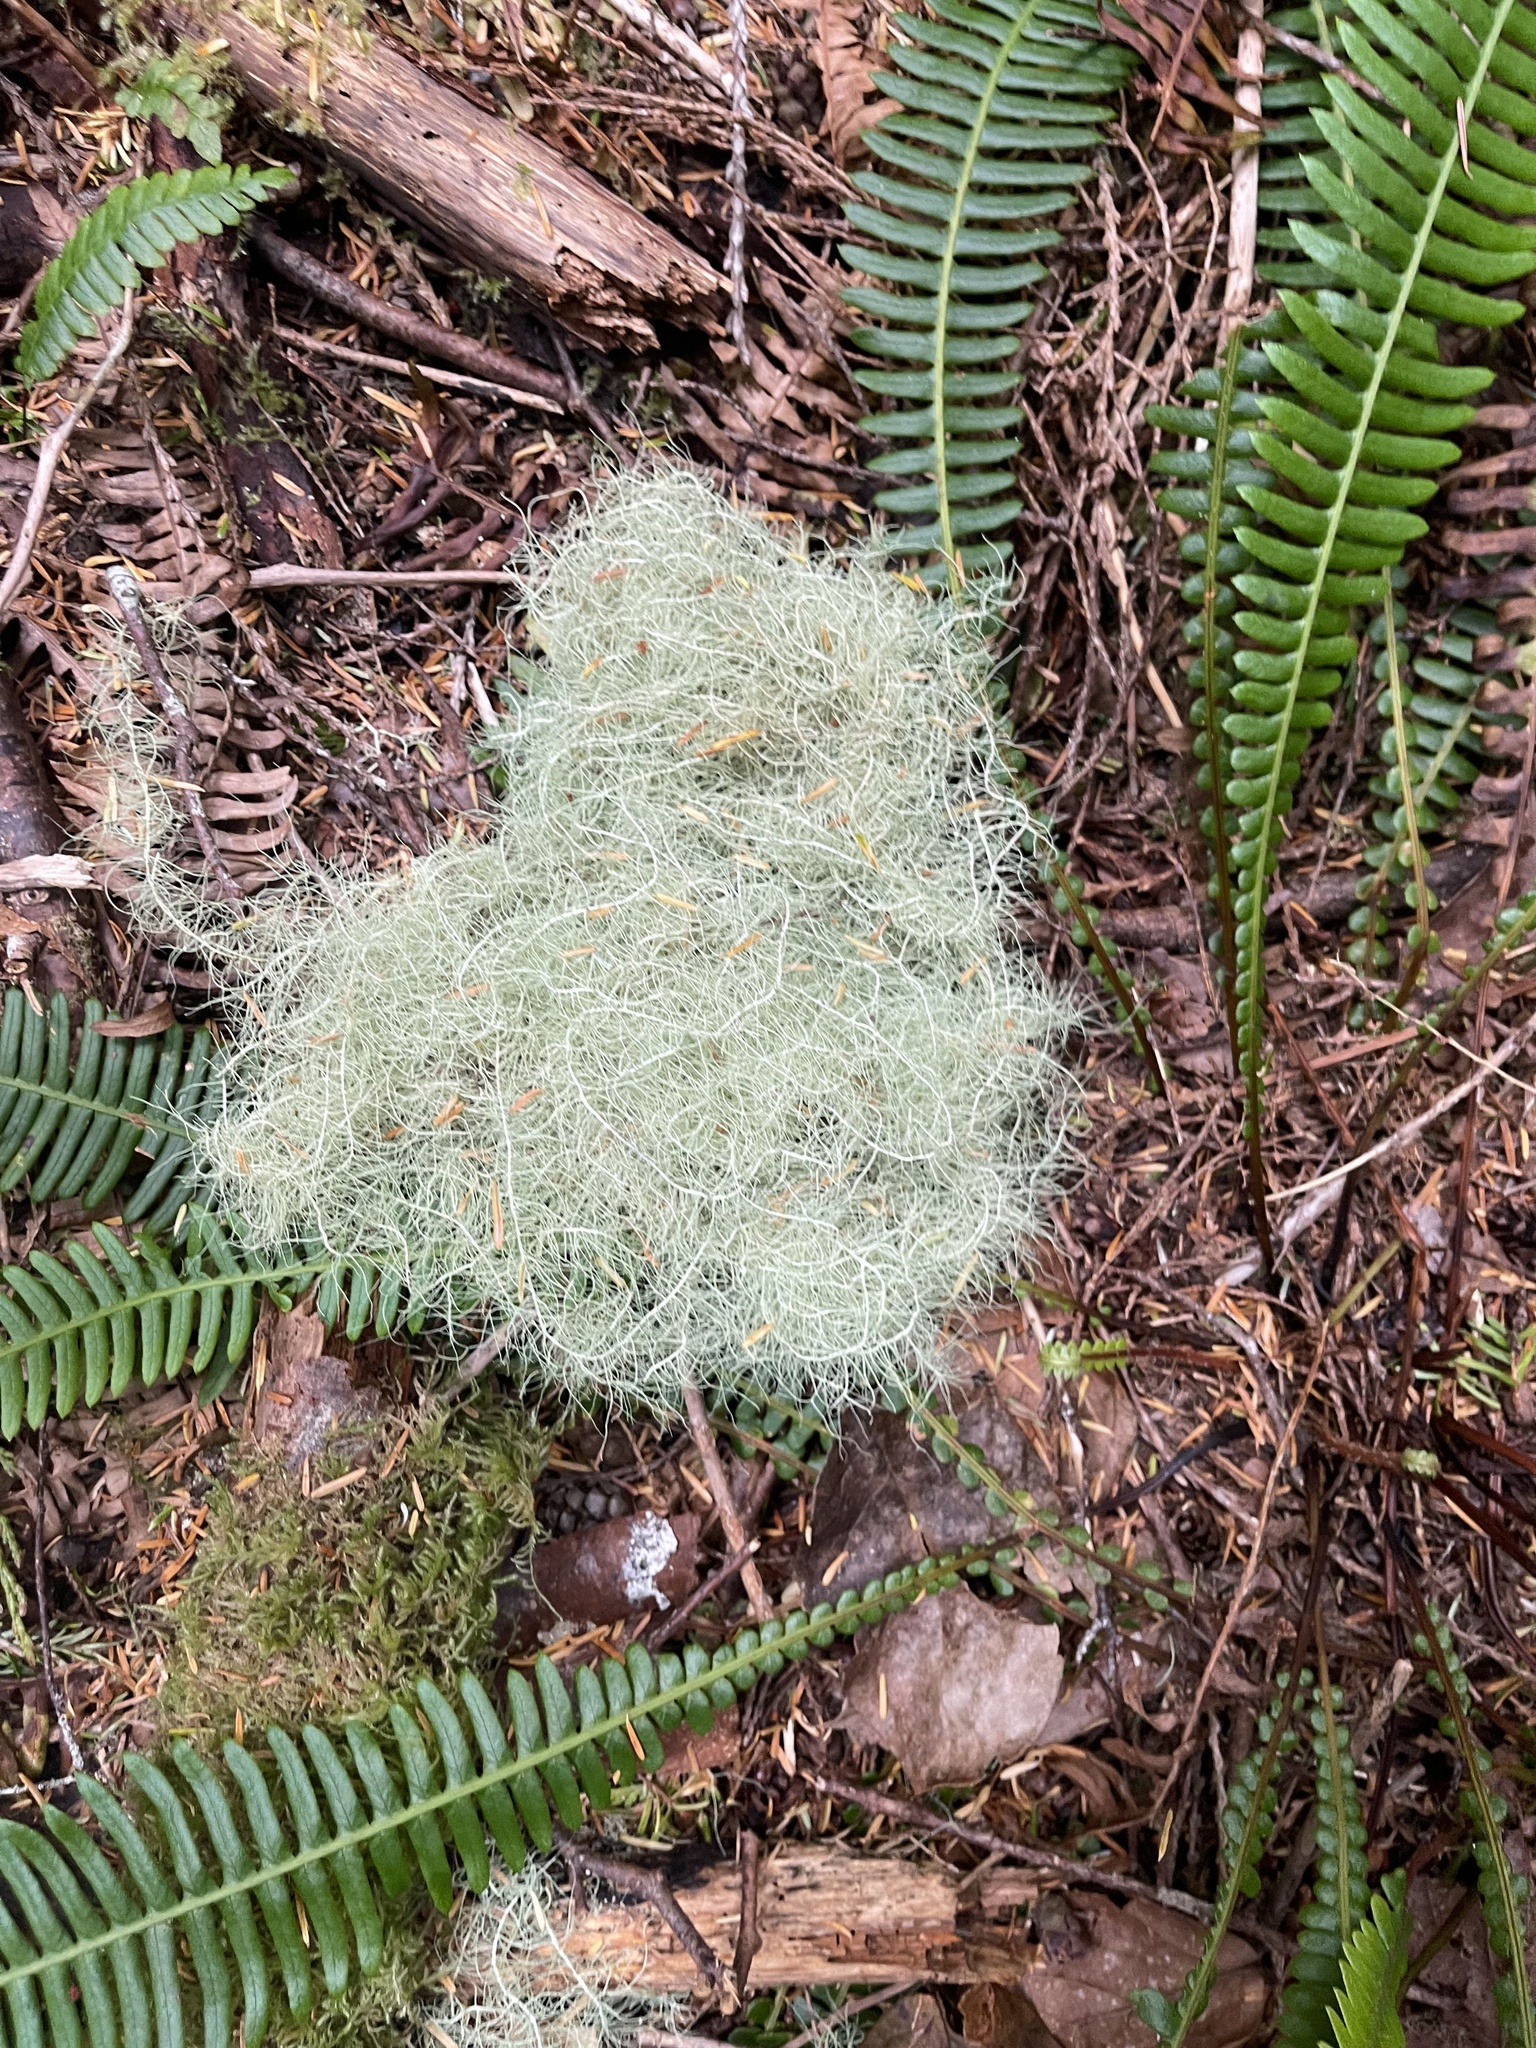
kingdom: Fungi
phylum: Ascomycota
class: Lecanoromycetes
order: Lecanorales
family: Parmeliaceae
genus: Dolichousnea
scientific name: Dolichousnea longissima
